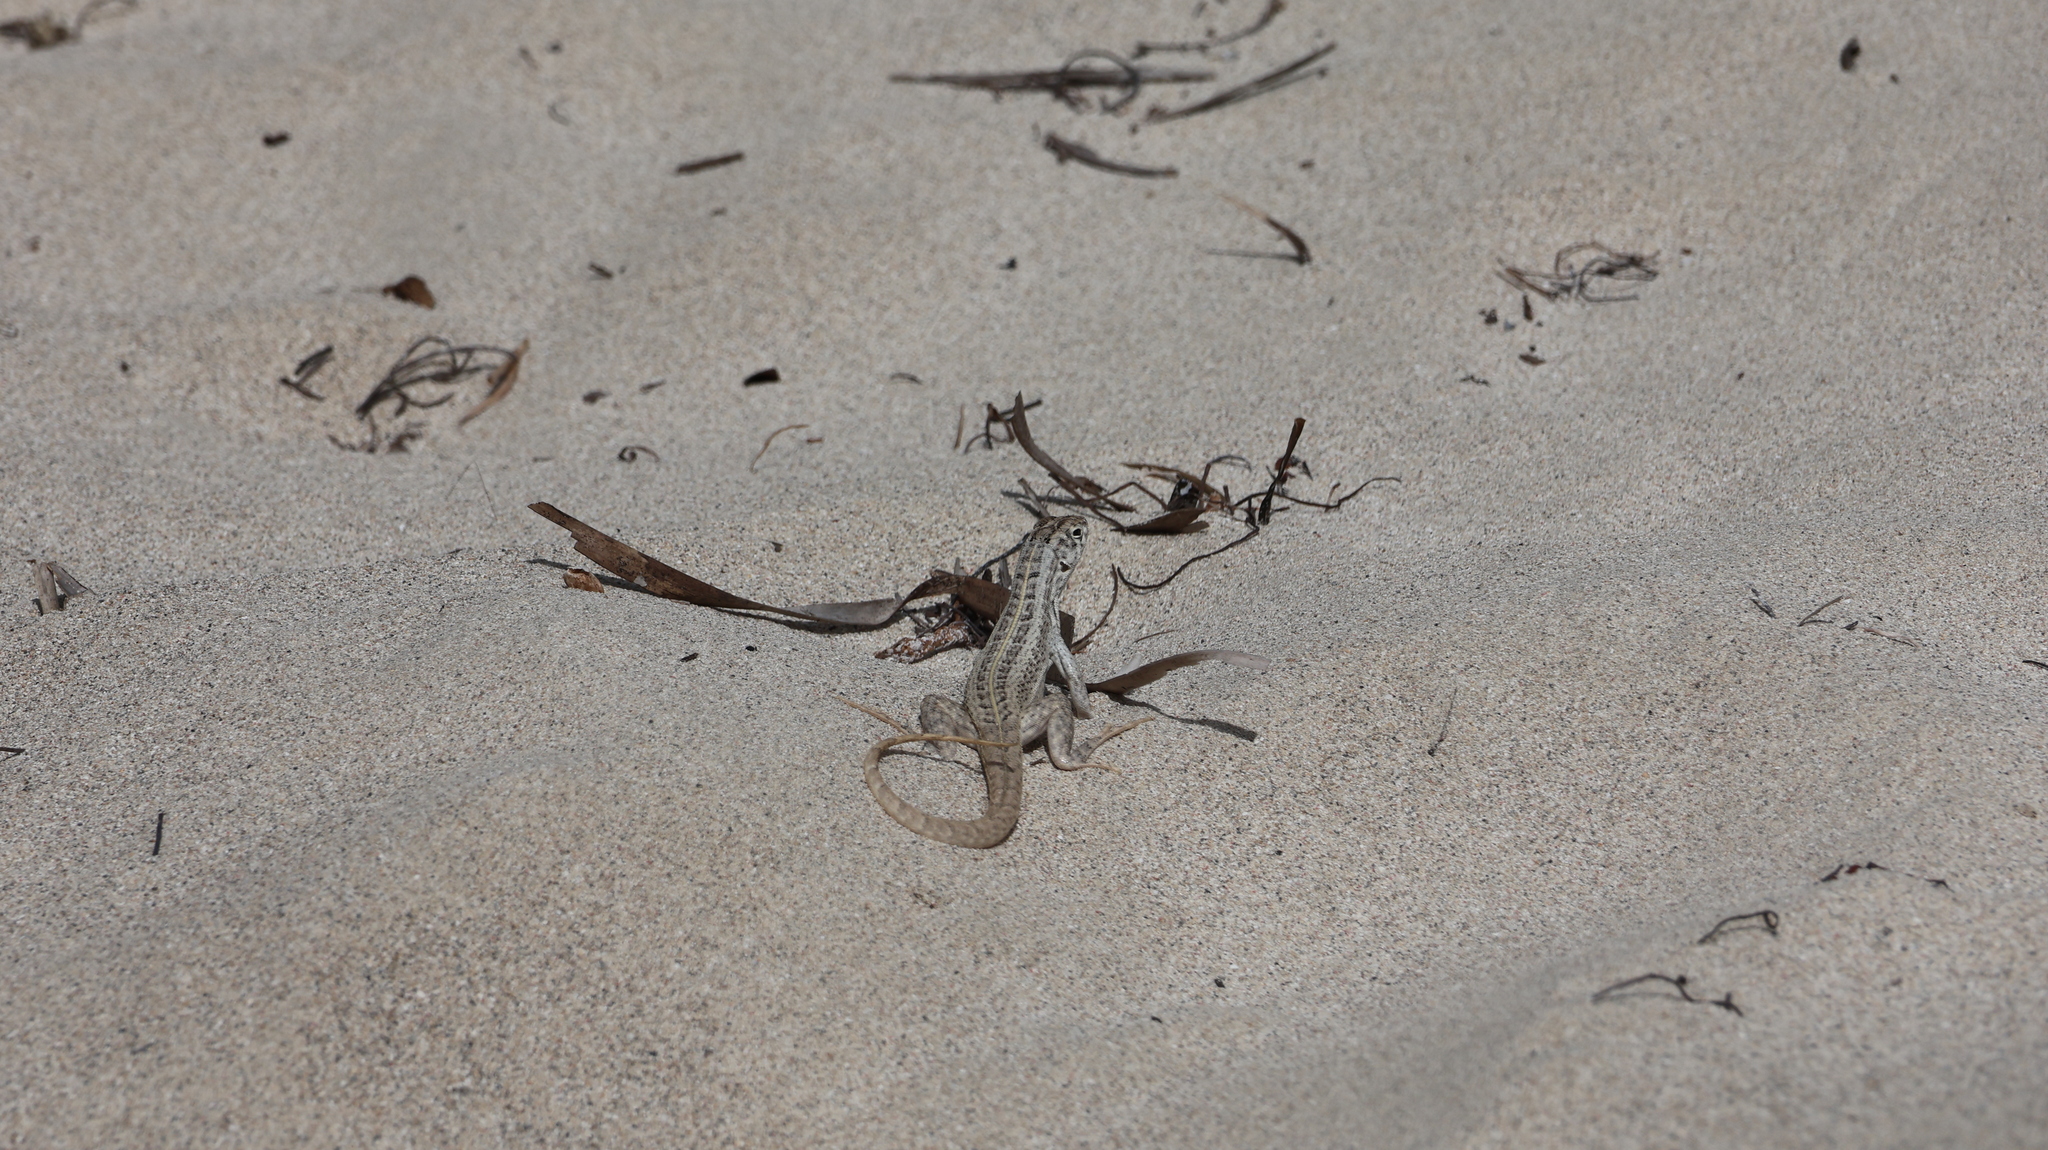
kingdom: Animalia
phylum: Chordata
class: Squamata
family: Leiocephalidae
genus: Leiocephalus
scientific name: Leiocephalus cubensis
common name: Cuban curlytail lizard
